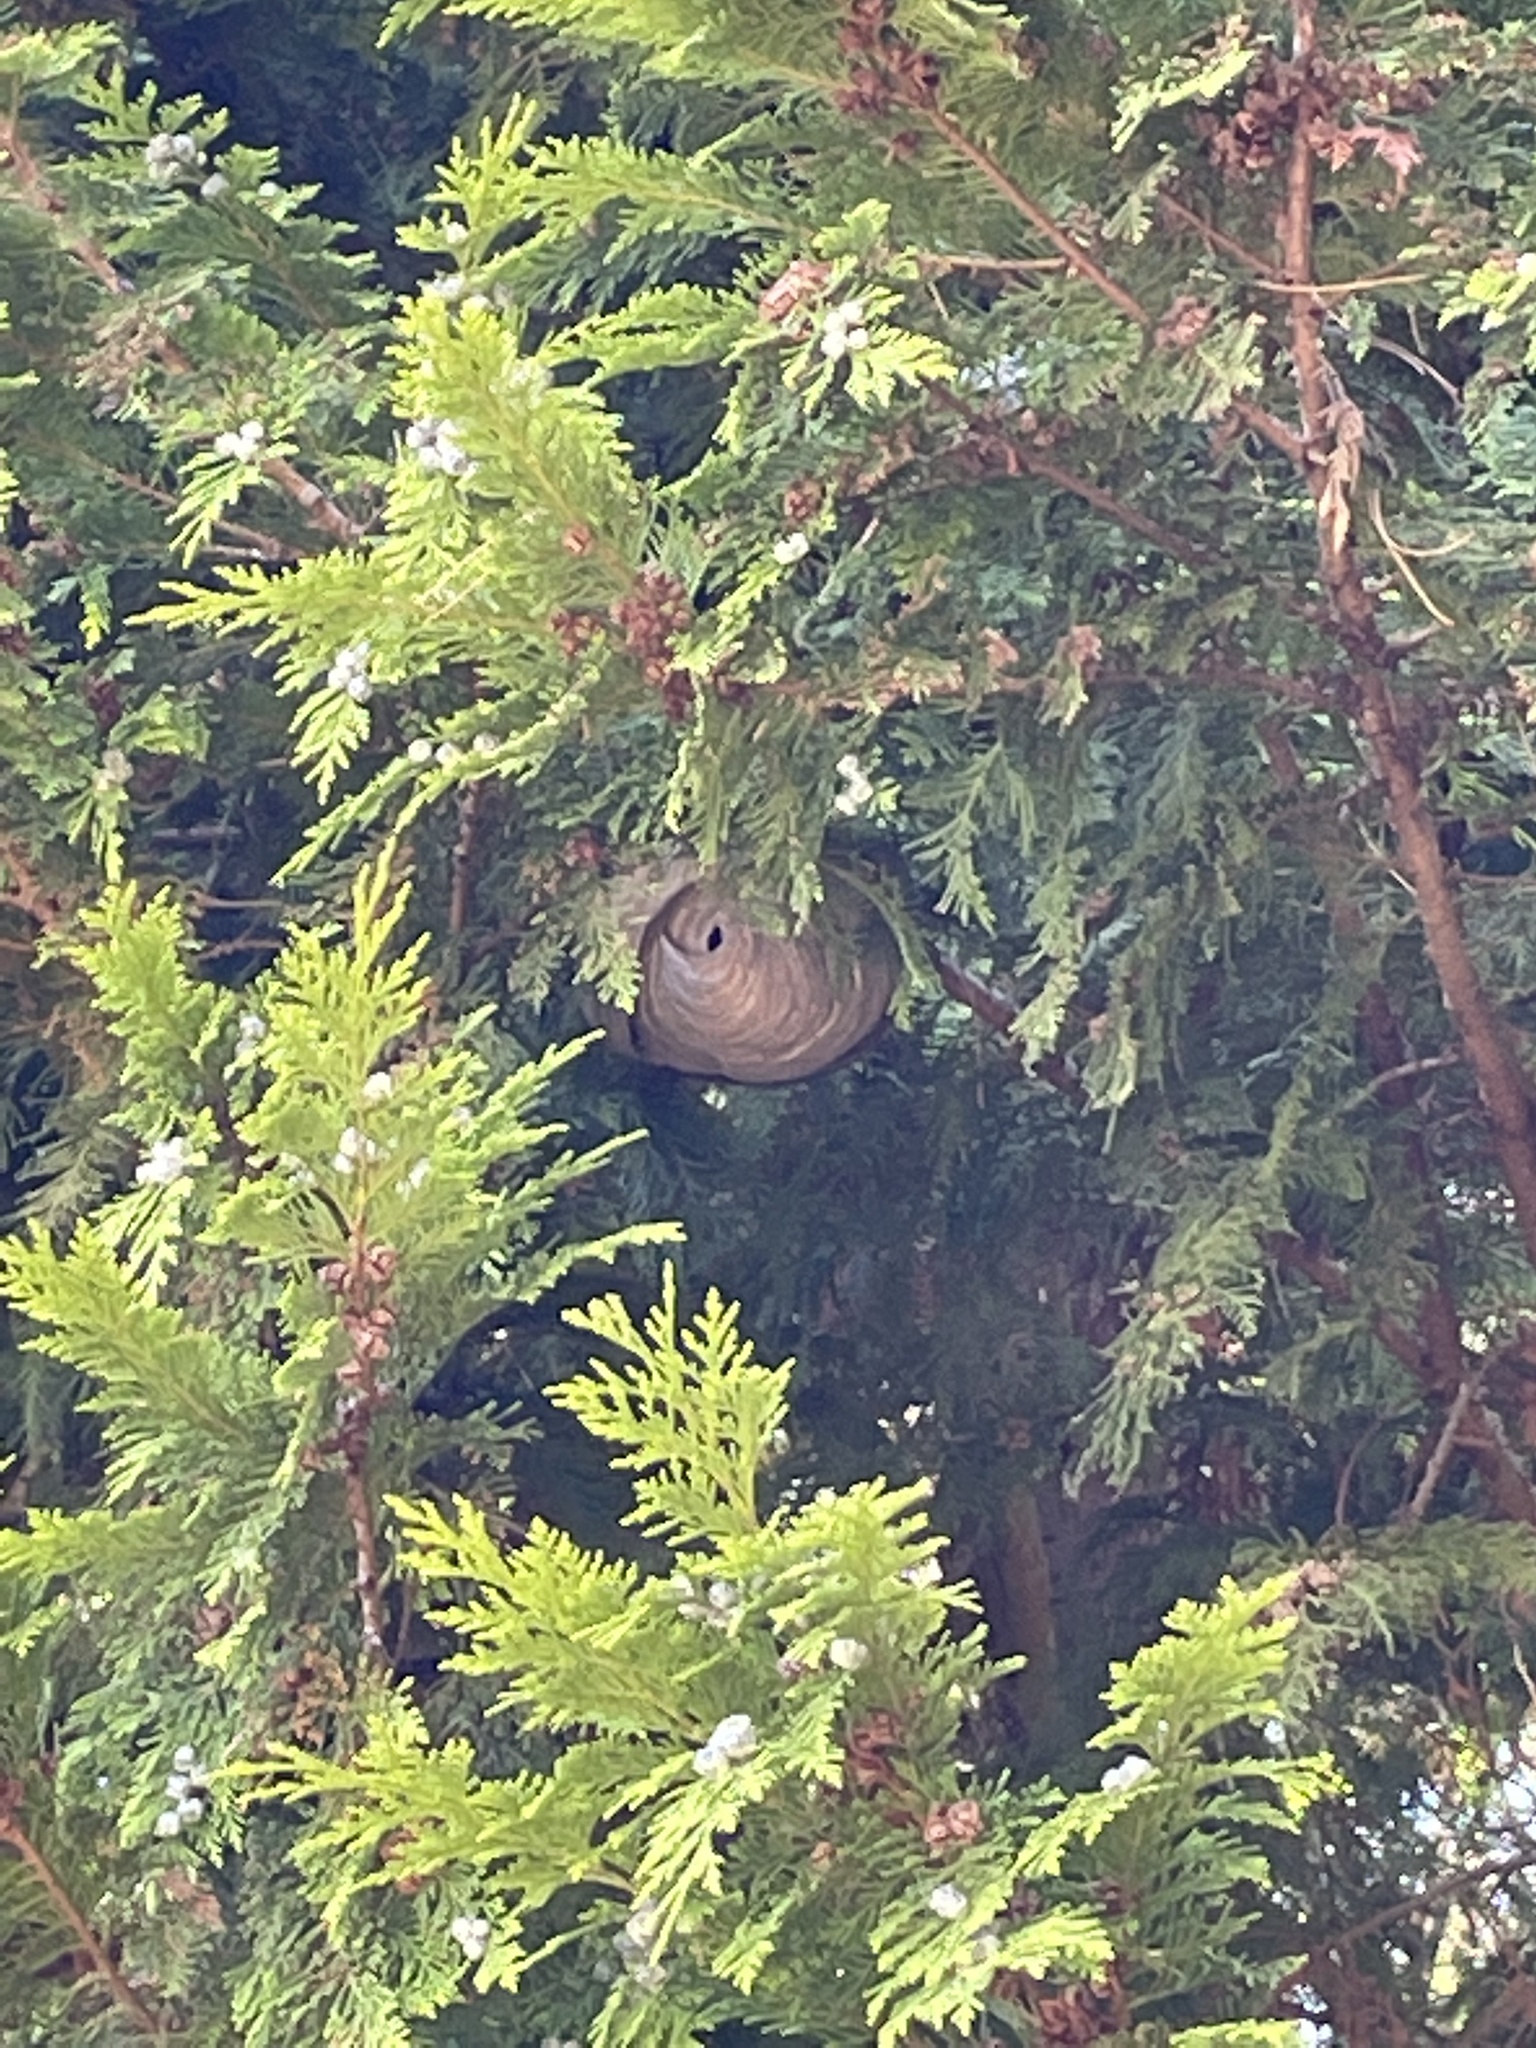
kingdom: Animalia
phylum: Arthropoda
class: Insecta
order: Hymenoptera
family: Vespidae
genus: Vespa
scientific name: Vespa velutina
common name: Asian hornet
